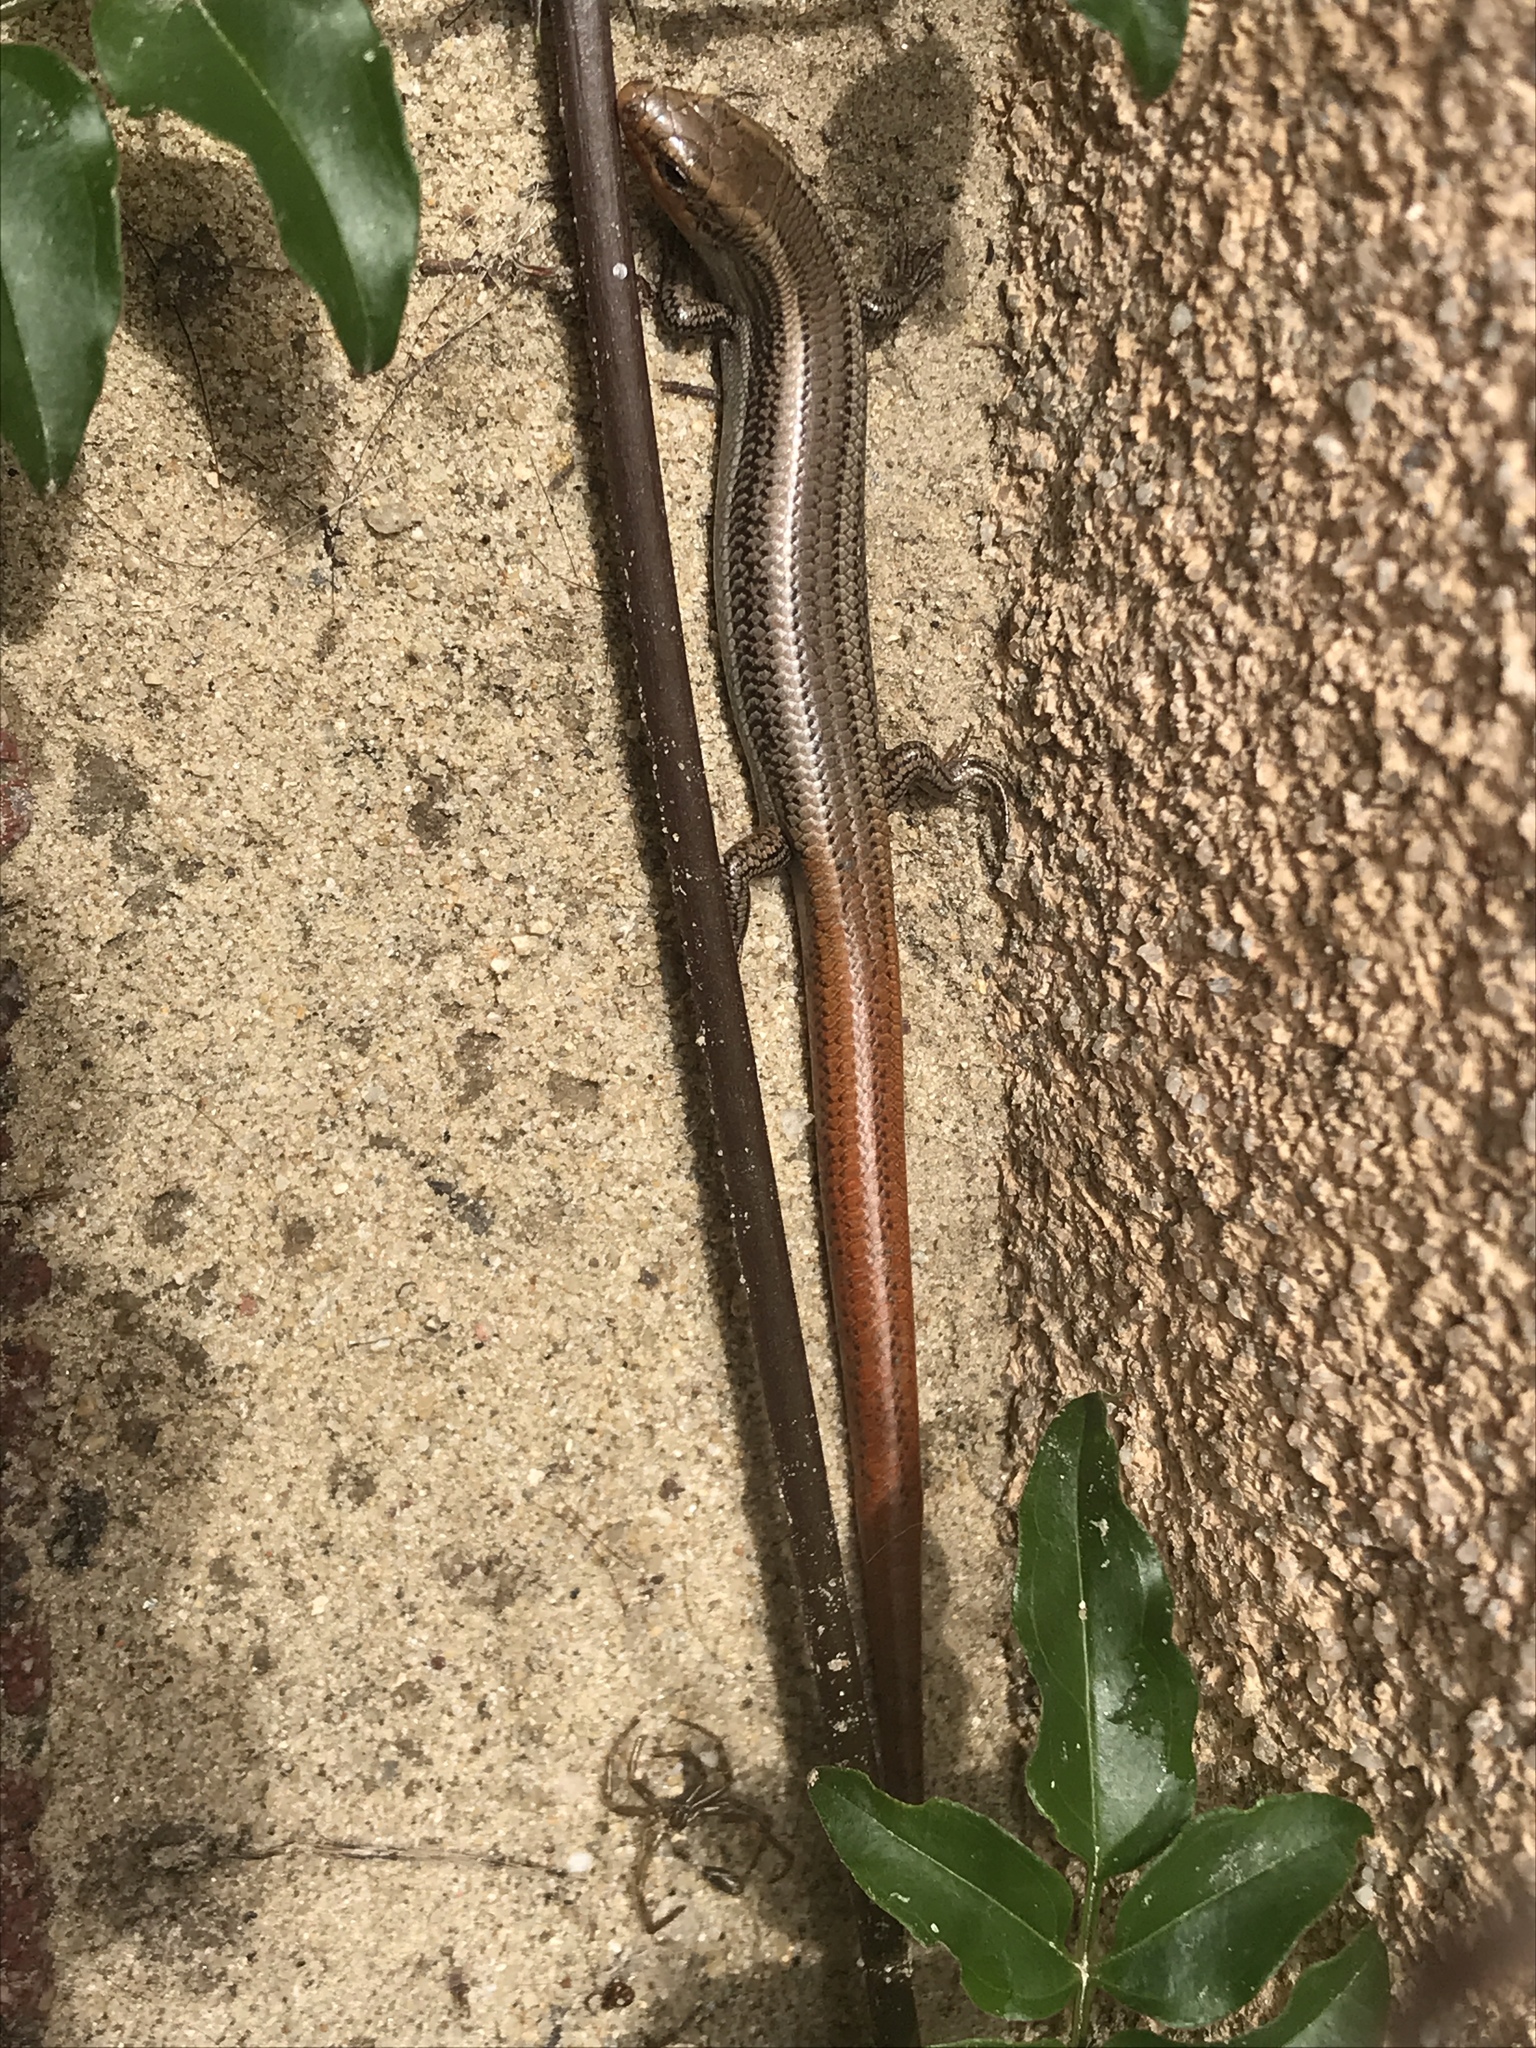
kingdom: Animalia
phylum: Chordata
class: Squamata
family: Scincidae
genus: Plestiodon
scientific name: Plestiodon skiltonianus
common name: Coronado island skink [interparietalis]
